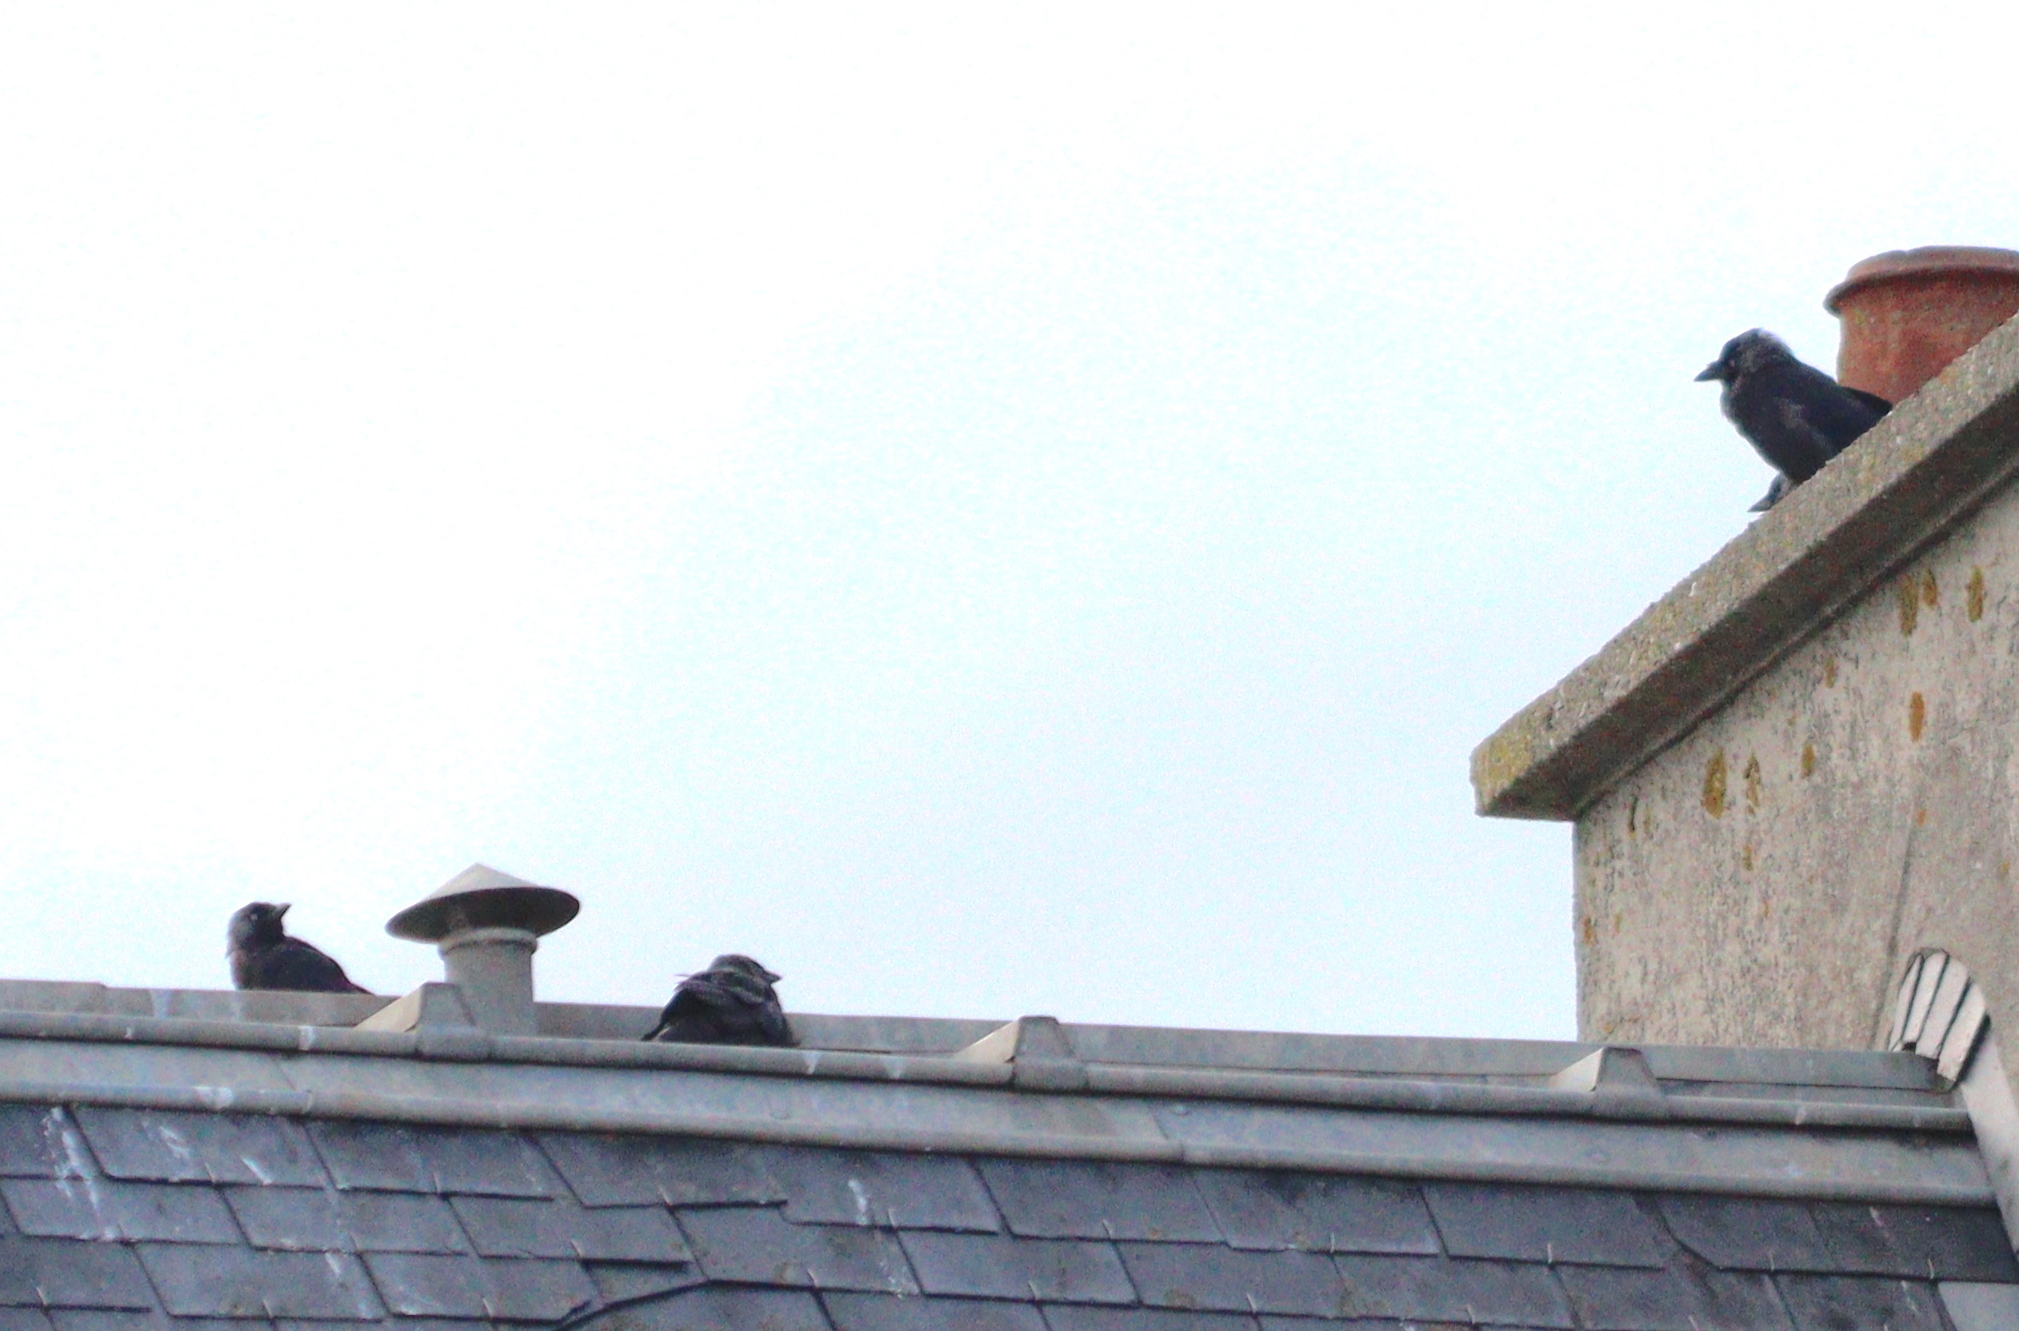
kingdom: Animalia
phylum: Chordata
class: Aves
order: Passeriformes
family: Corvidae
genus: Coloeus
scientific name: Coloeus monedula
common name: Western jackdaw
